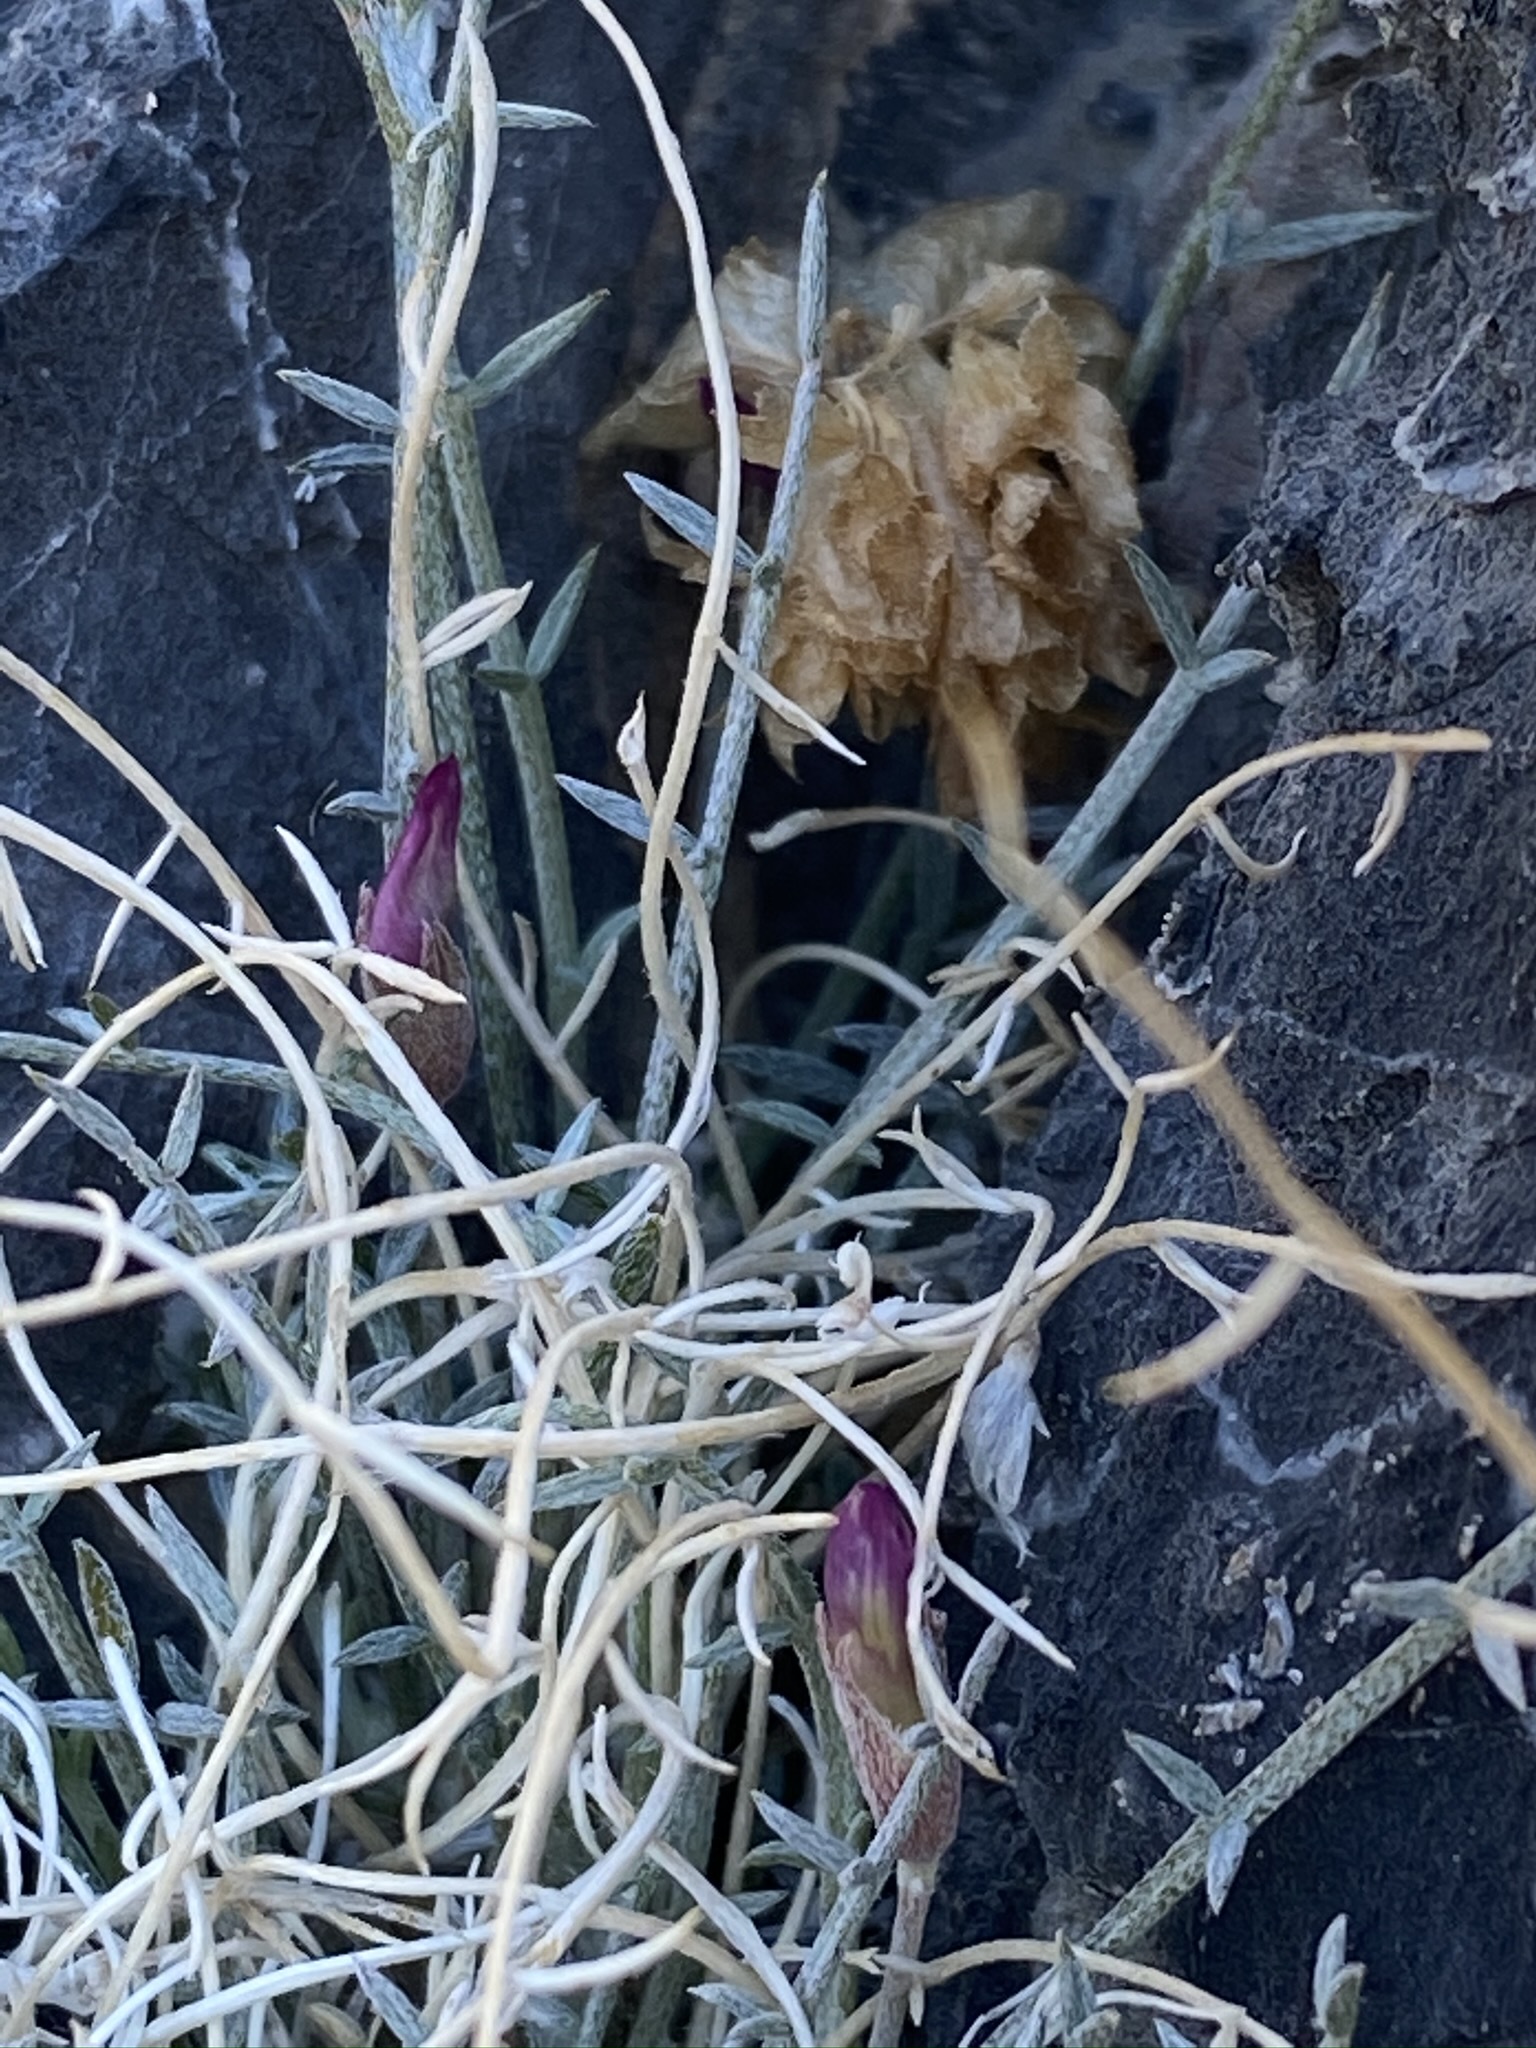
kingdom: Plantae
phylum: Tracheophyta
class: Magnoliopsida
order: Fabales
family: Fabaceae
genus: Astragalus
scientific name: Astragalus panamintensis
